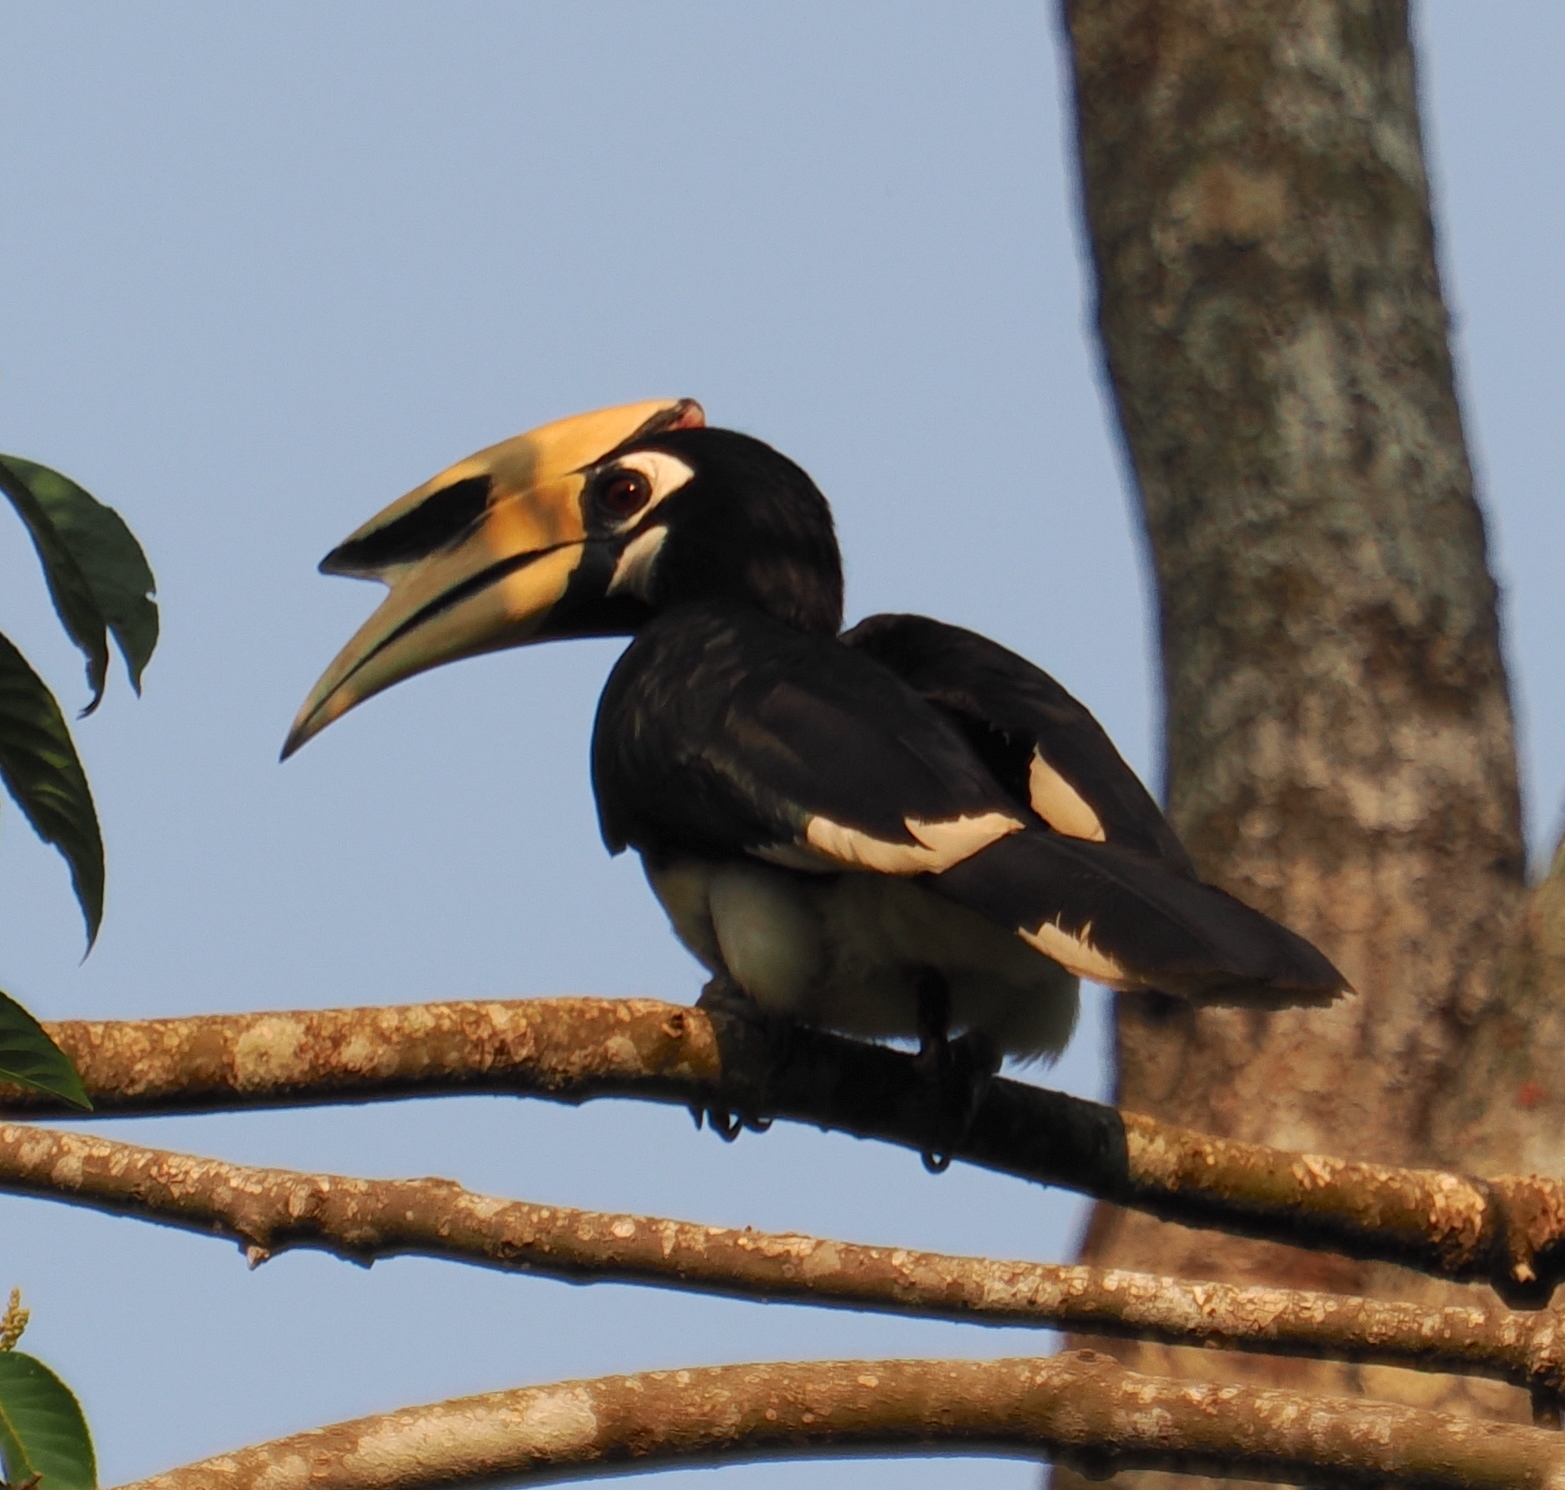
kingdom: Animalia
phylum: Chordata
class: Aves
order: Bucerotiformes
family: Bucerotidae
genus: Anthracoceros
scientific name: Anthracoceros albirostris
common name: Oriental pied-hornbill
